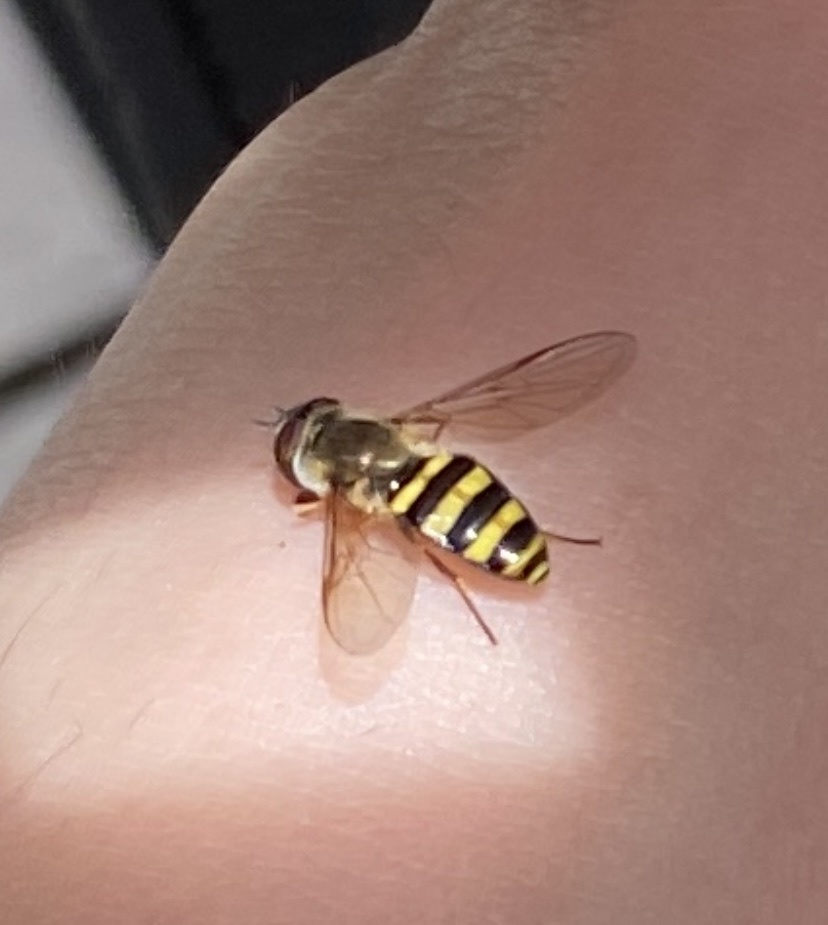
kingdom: Animalia
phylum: Arthropoda
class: Insecta
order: Diptera
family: Syrphidae
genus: Eupeodes
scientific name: Eupeodes
